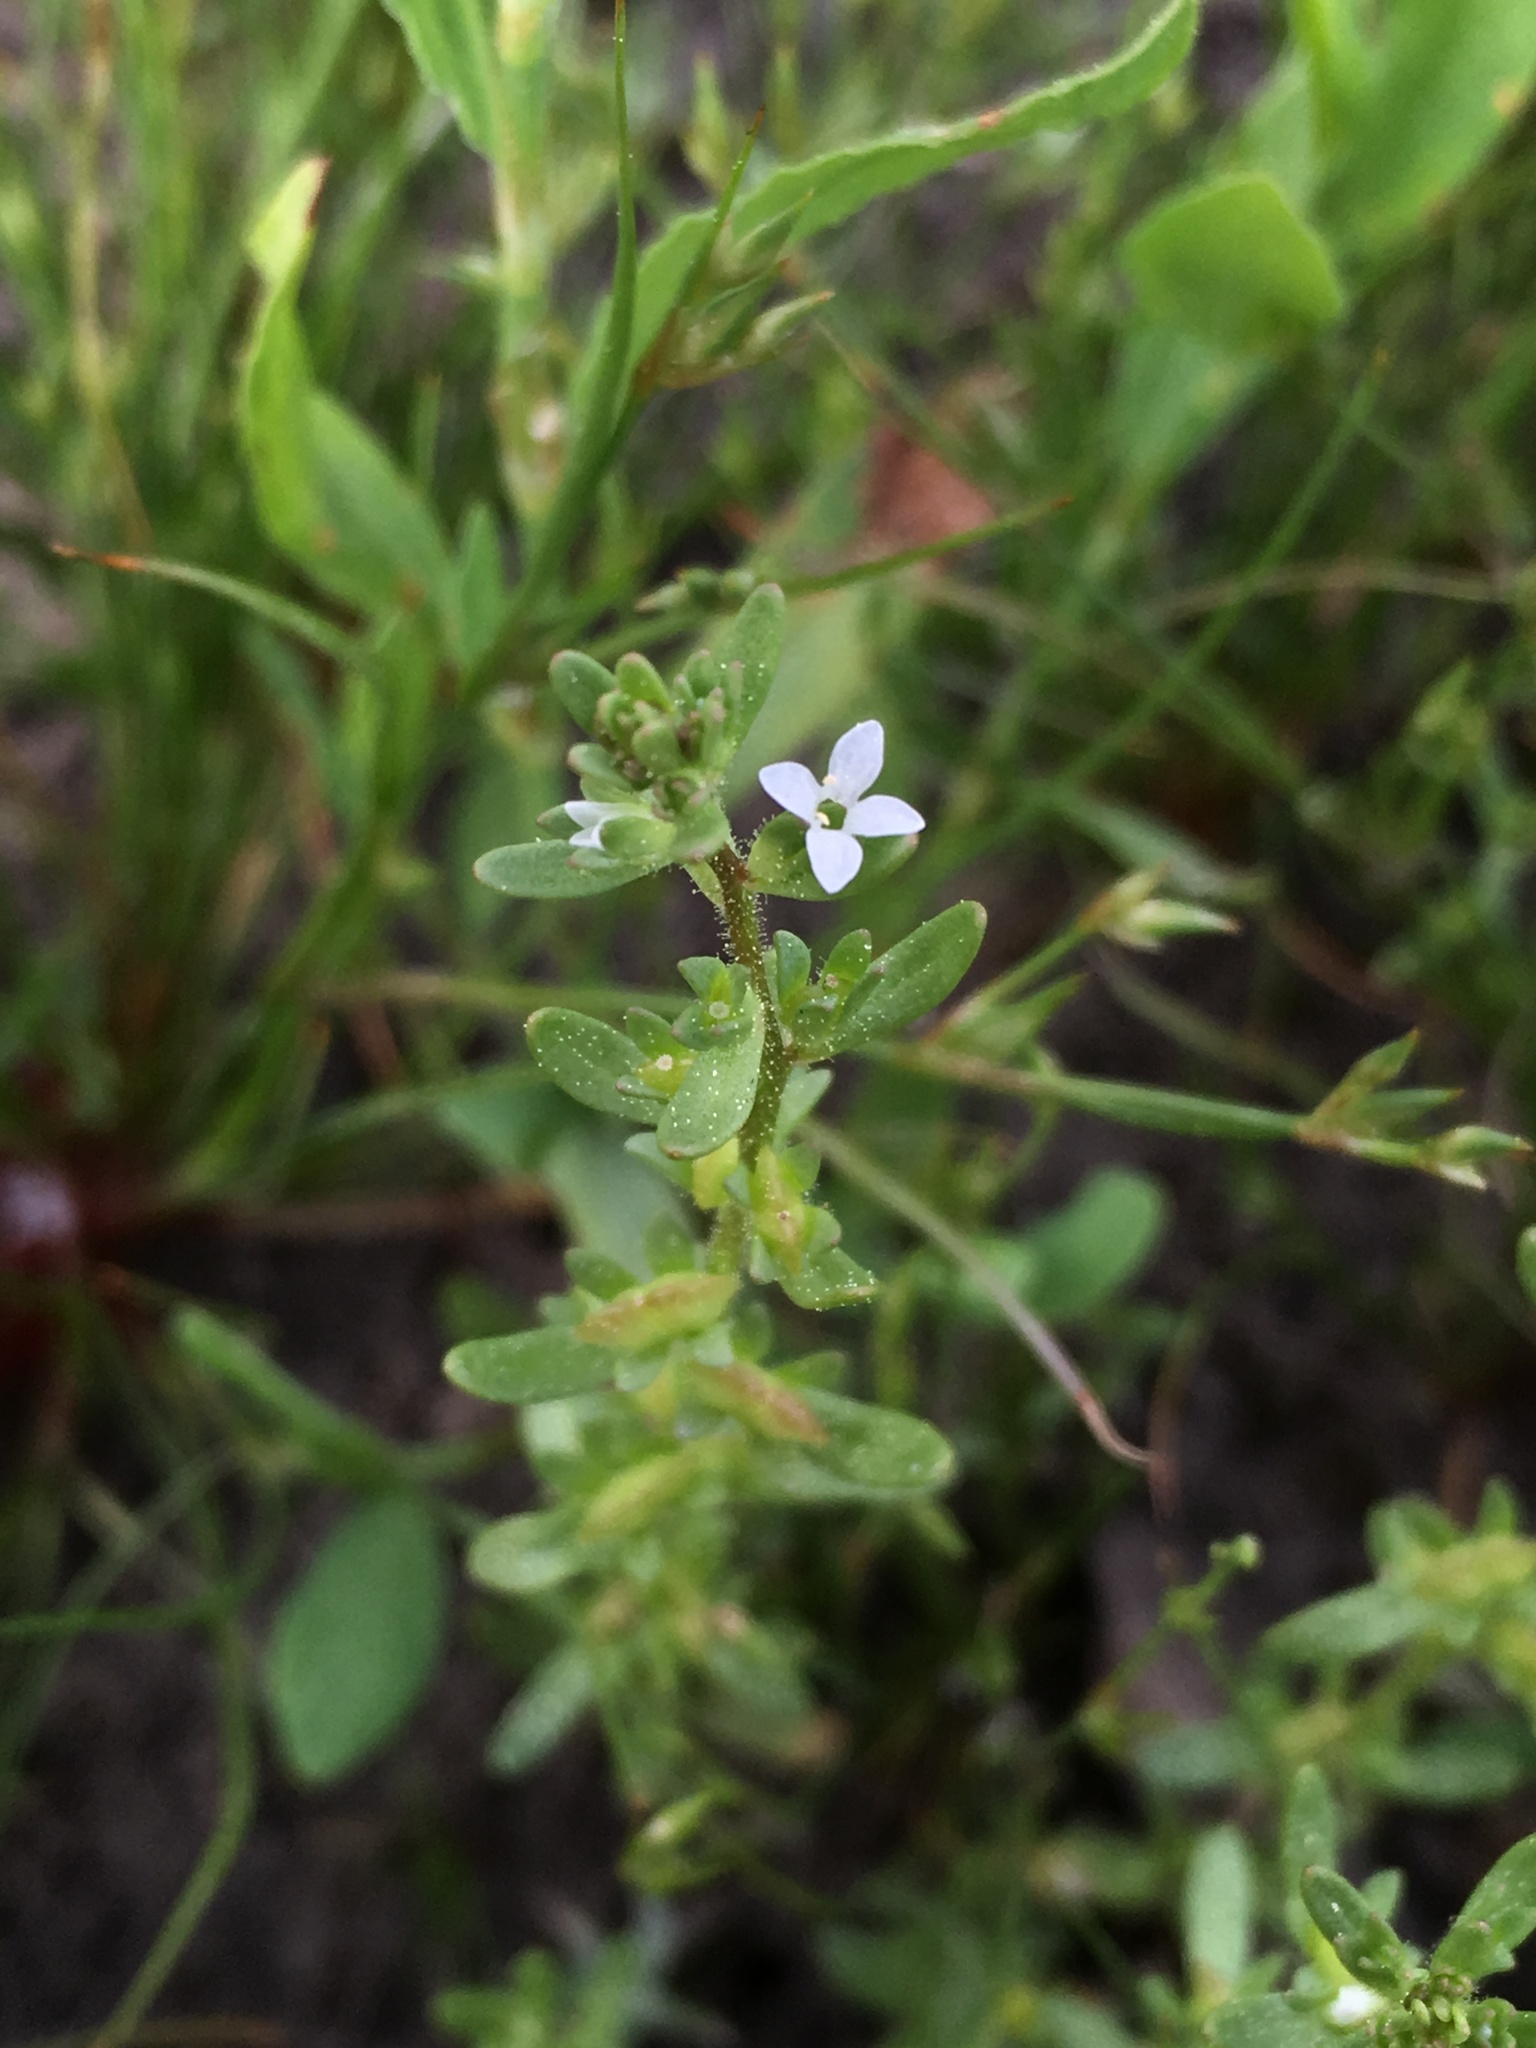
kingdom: Plantae
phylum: Tracheophyta
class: Magnoliopsida
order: Lamiales
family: Plantaginaceae
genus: Veronica
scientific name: Veronica peregrina
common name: Neckweed
